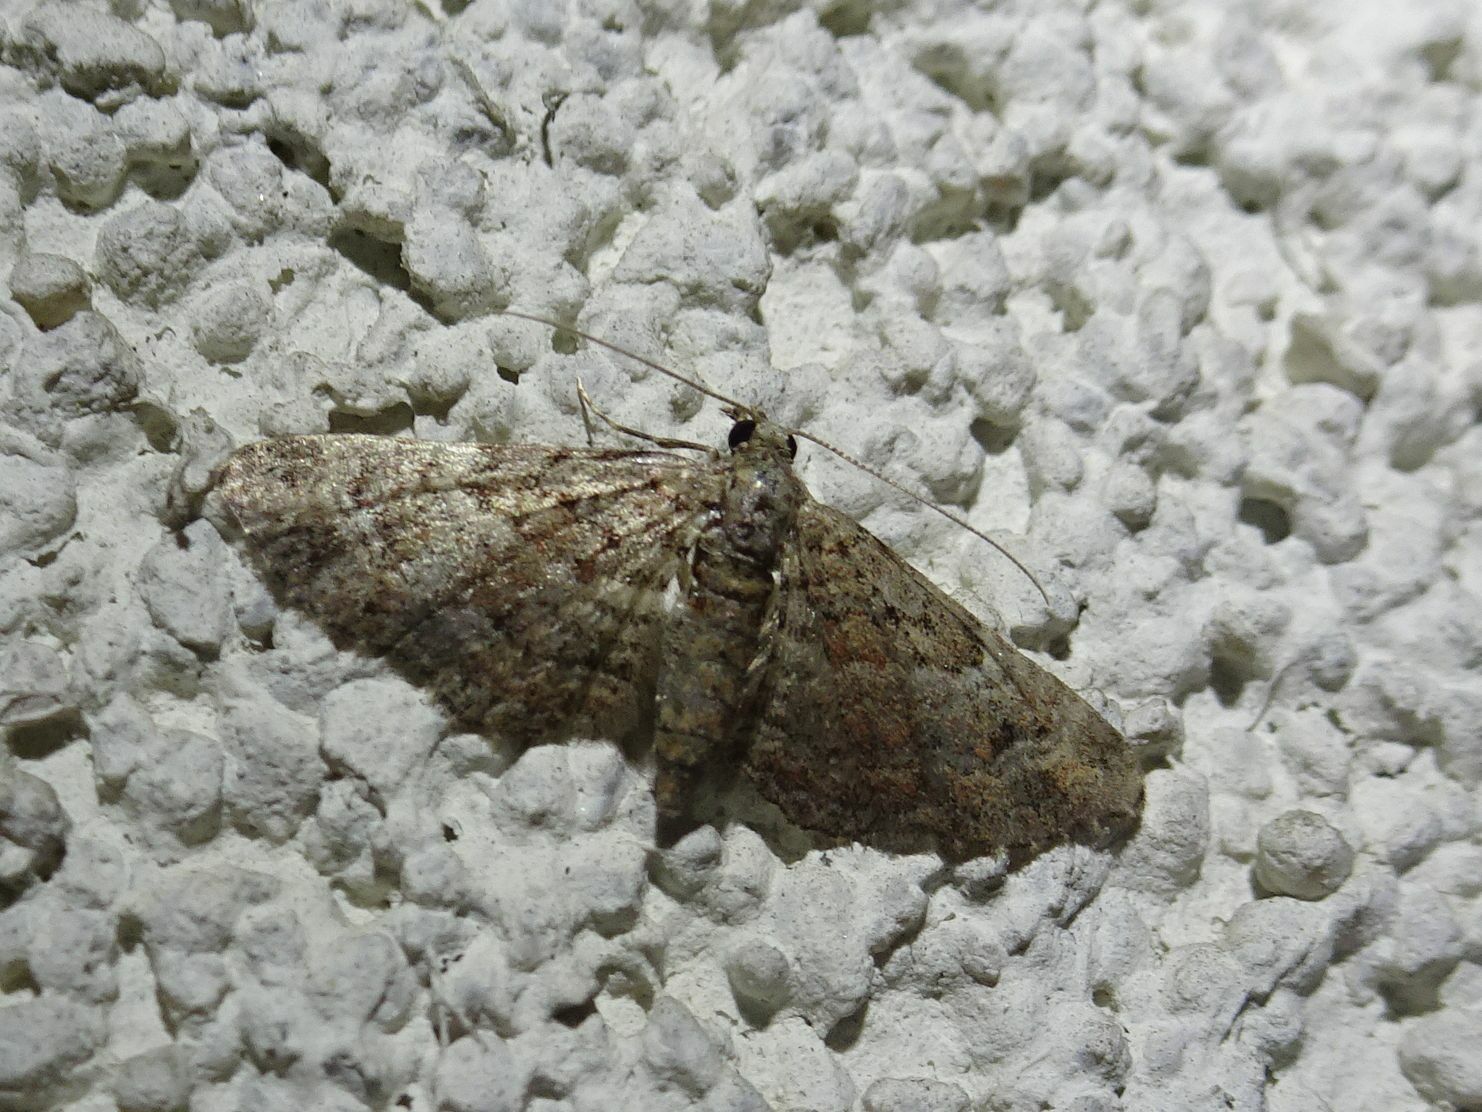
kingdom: Animalia
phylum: Arthropoda
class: Insecta
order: Lepidoptera
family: Geometridae
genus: Gymnoscelis
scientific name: Gymnoscelis rufifasciata
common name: Double-striped pug
